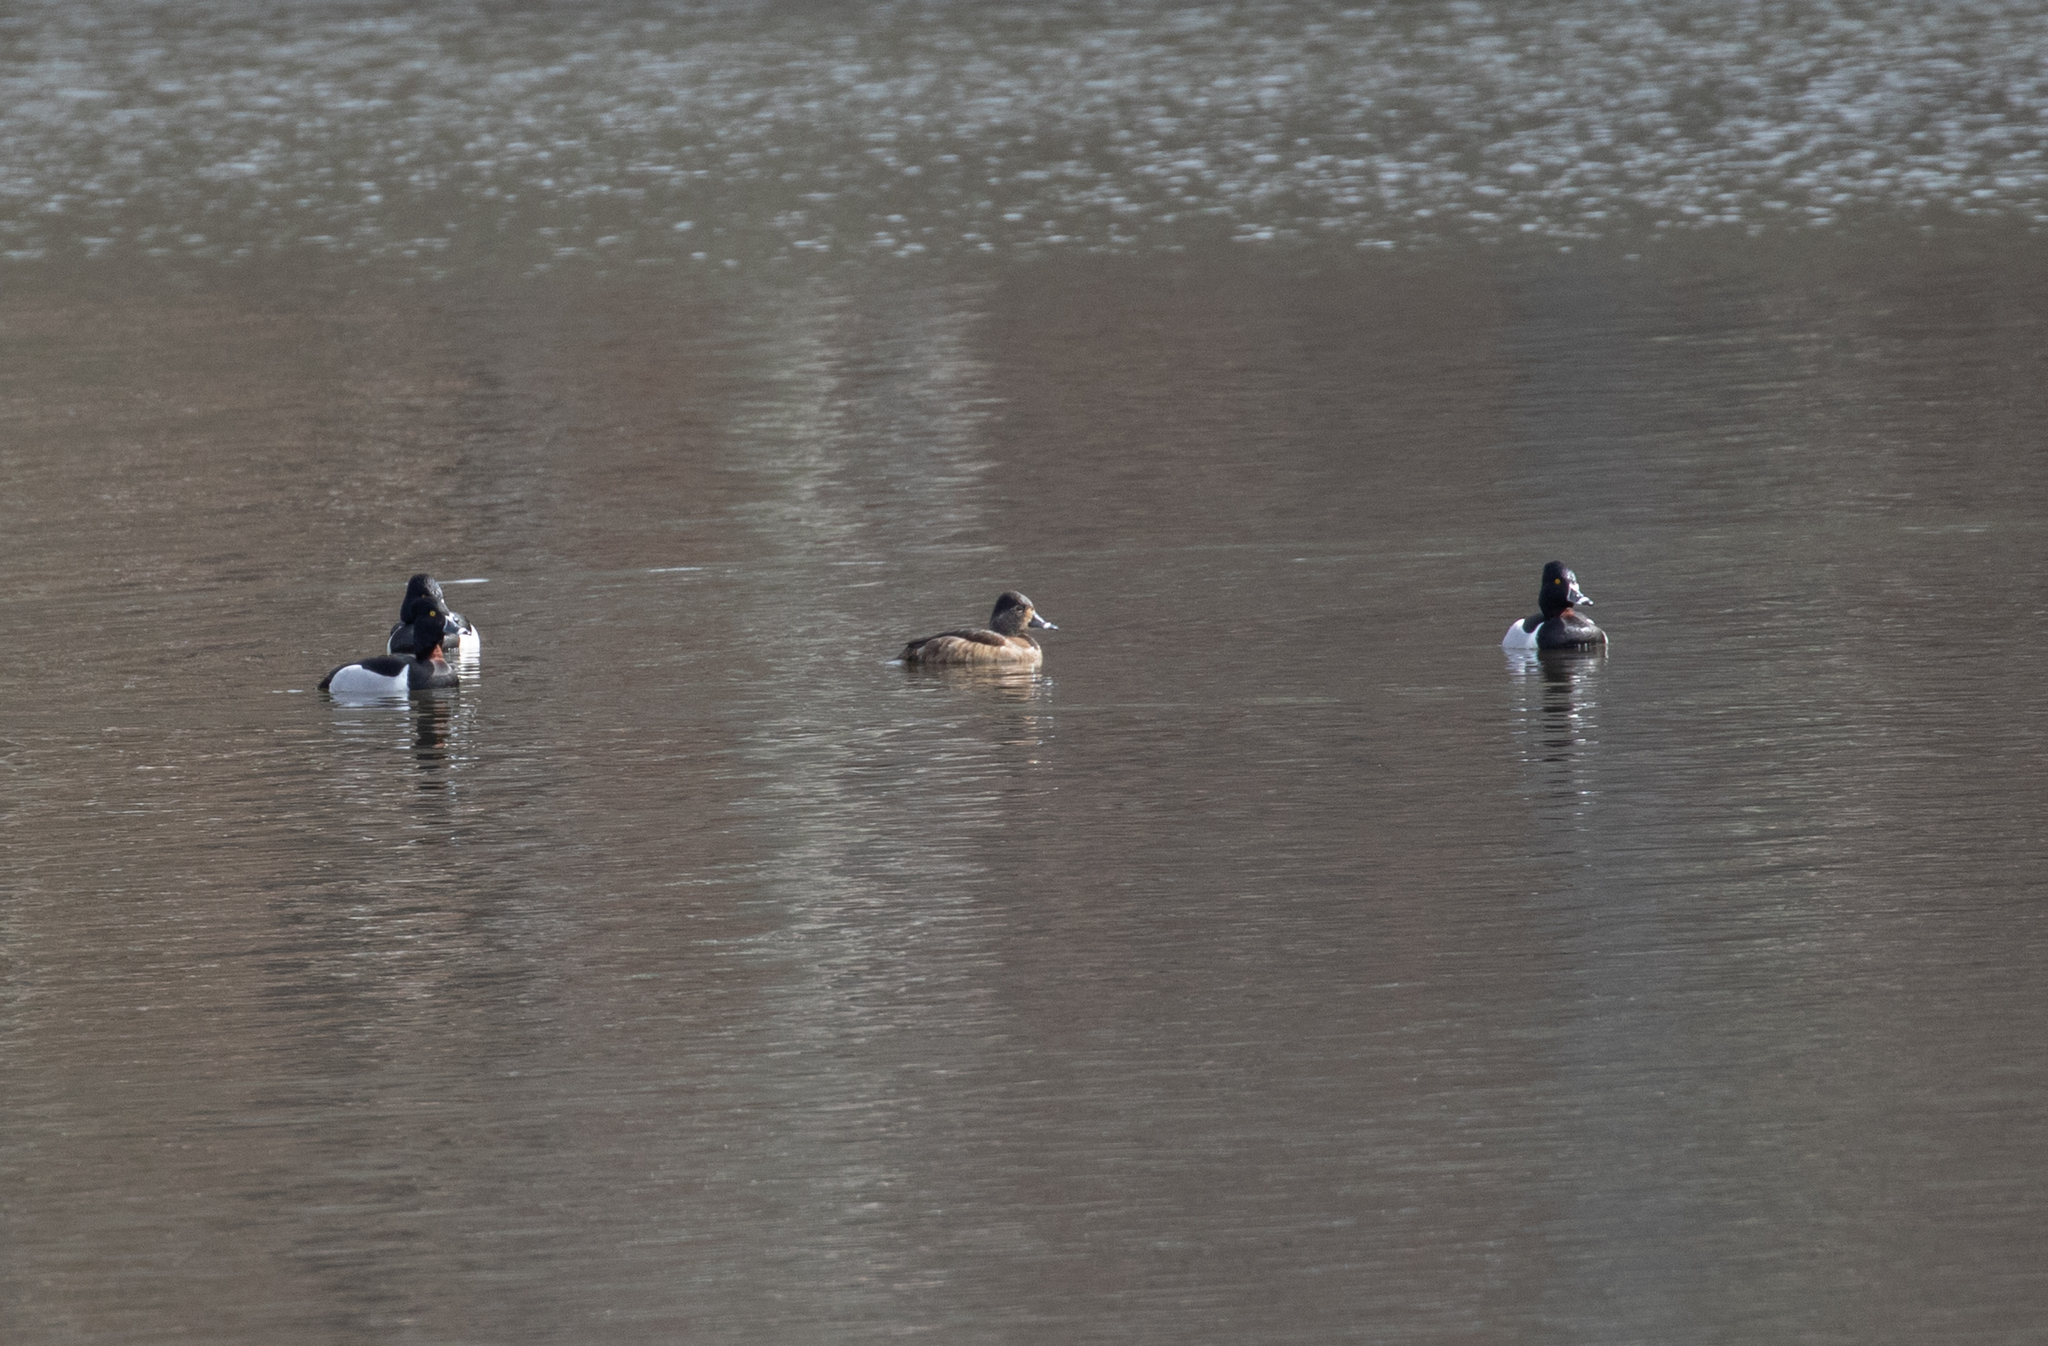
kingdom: Animalia
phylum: Chordata
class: Aves
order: Anseriformes
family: Anatidae
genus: Aythya
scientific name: Aythya collaris
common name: Ring-necked duck
